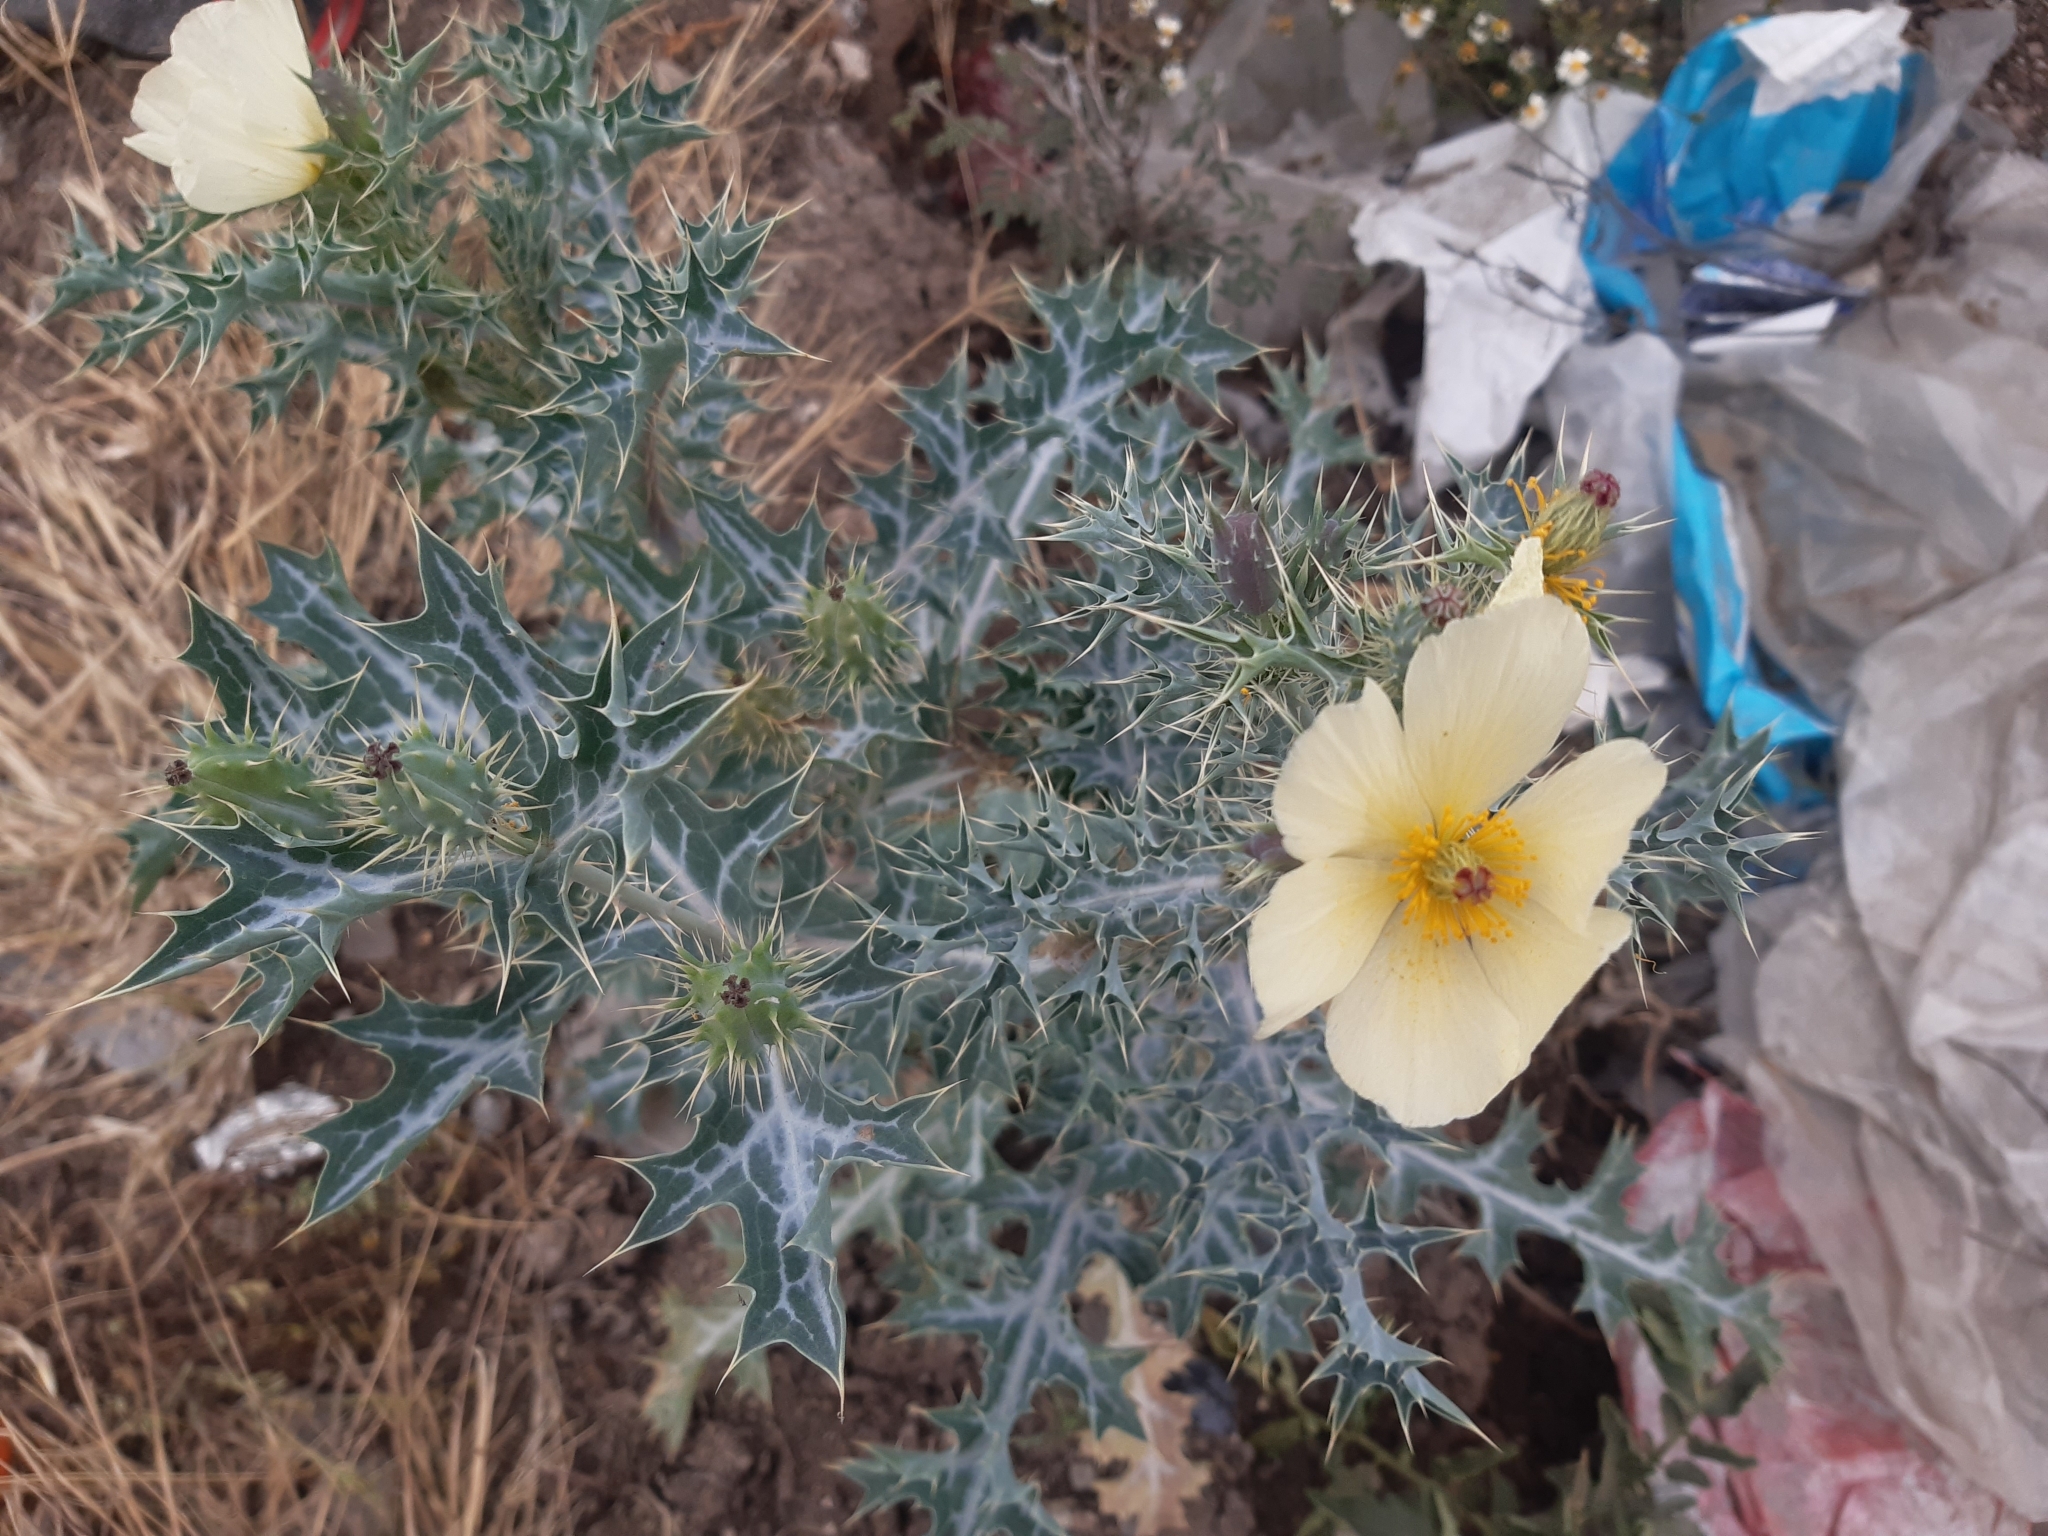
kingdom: Plantae
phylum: Tracheophyta
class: Magnoliopsida
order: Ranunculales
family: Papaveraceae
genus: Argemone
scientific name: Argemone ochroleuca
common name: White-flower mexican-poppy
